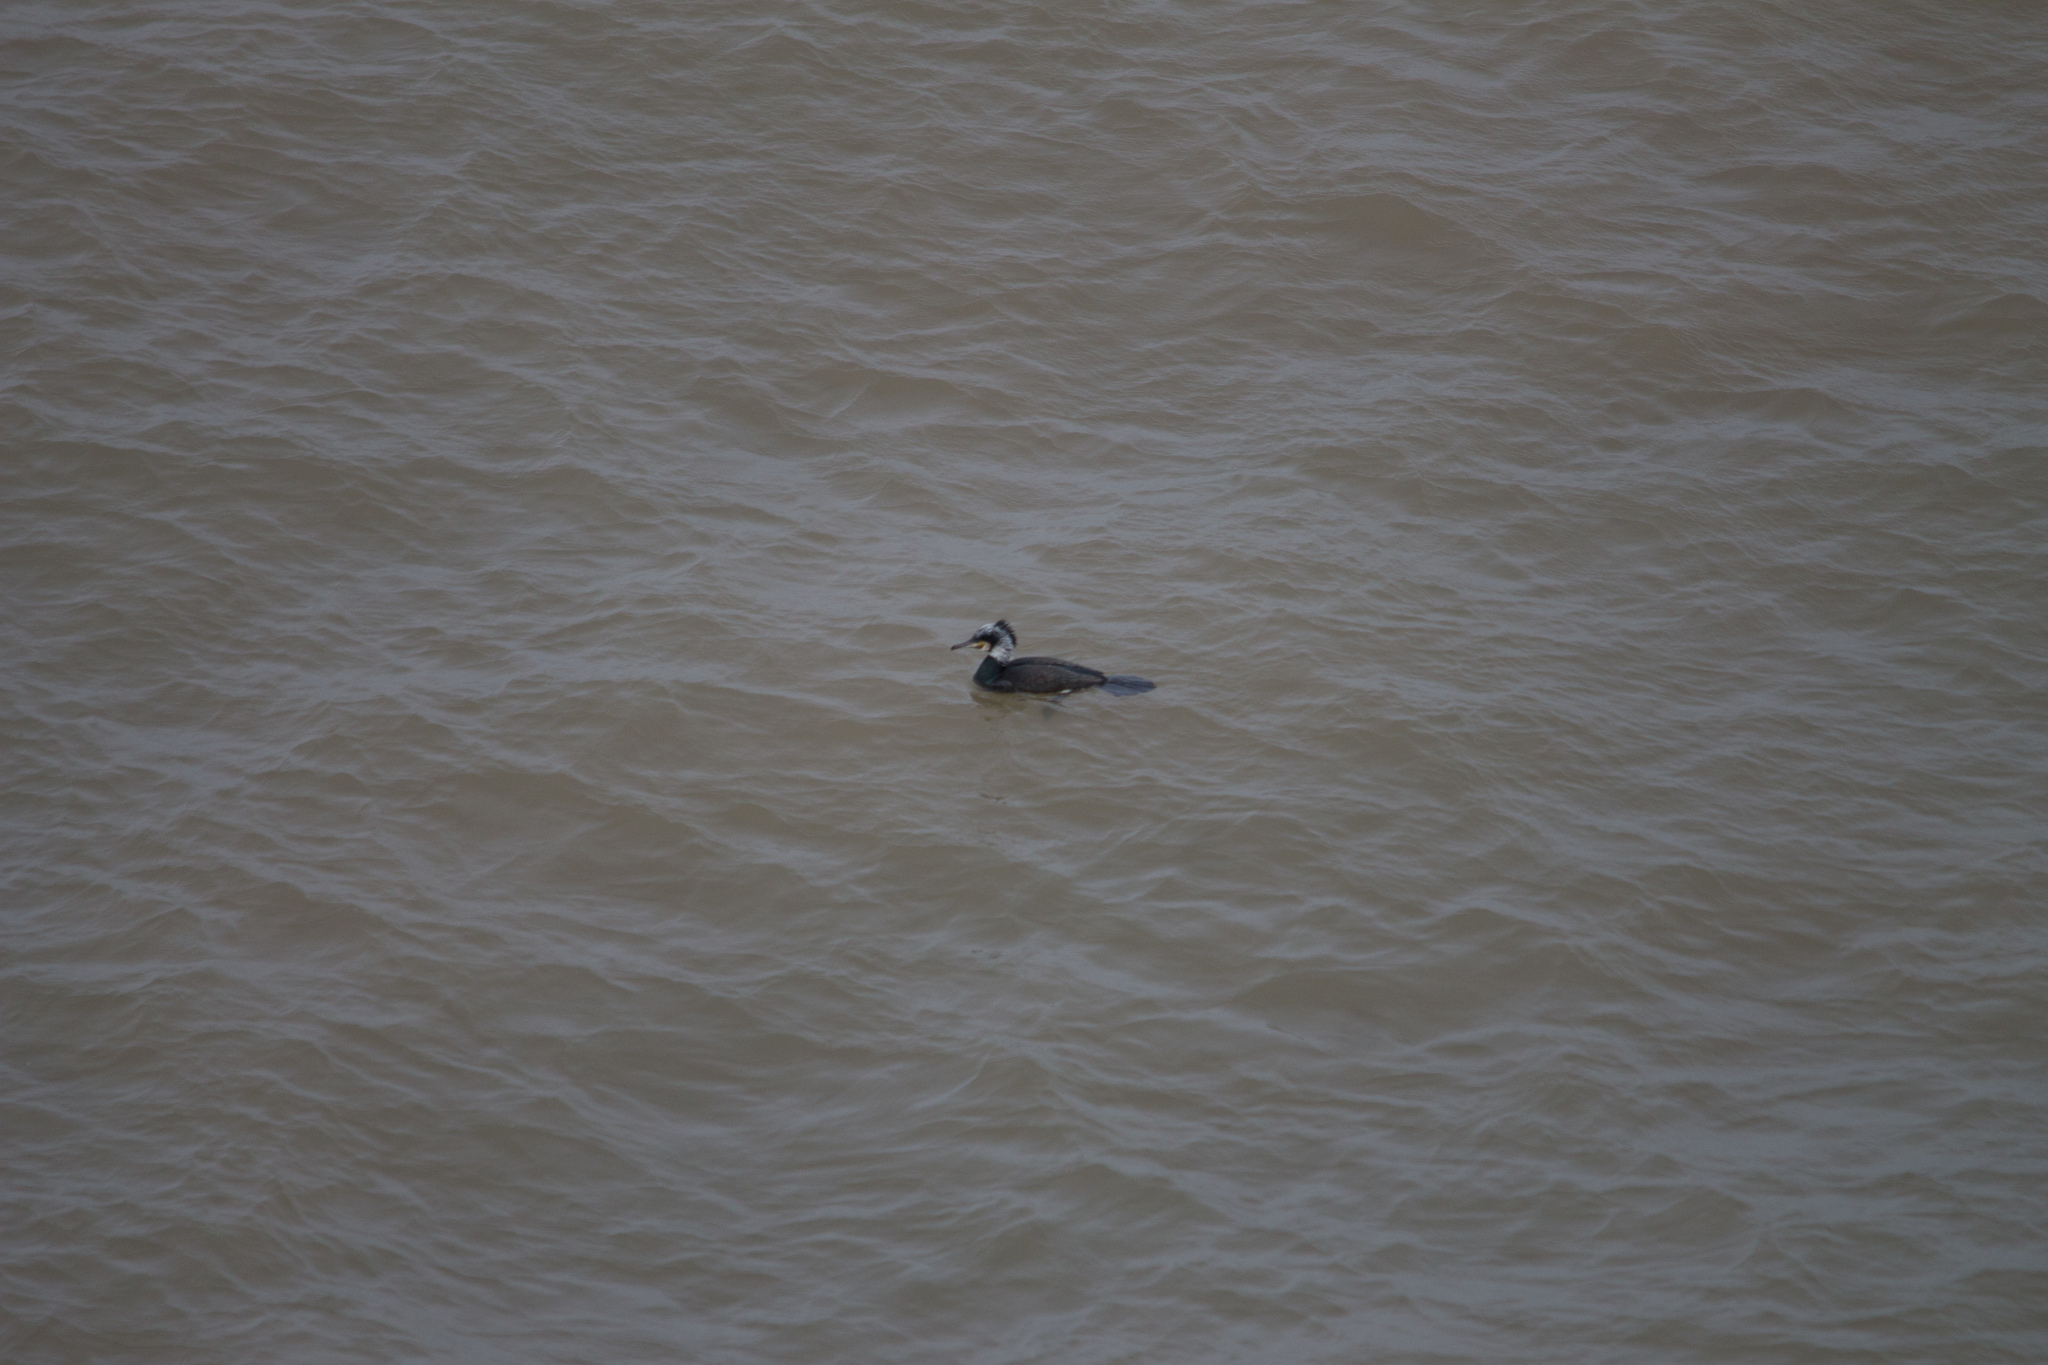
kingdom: Animalia
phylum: Chordata
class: Aves
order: Suliformes
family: Phalacrocoracidae
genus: Phalacrocorax
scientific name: Phalacrocorax carbo
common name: Great cormorant
